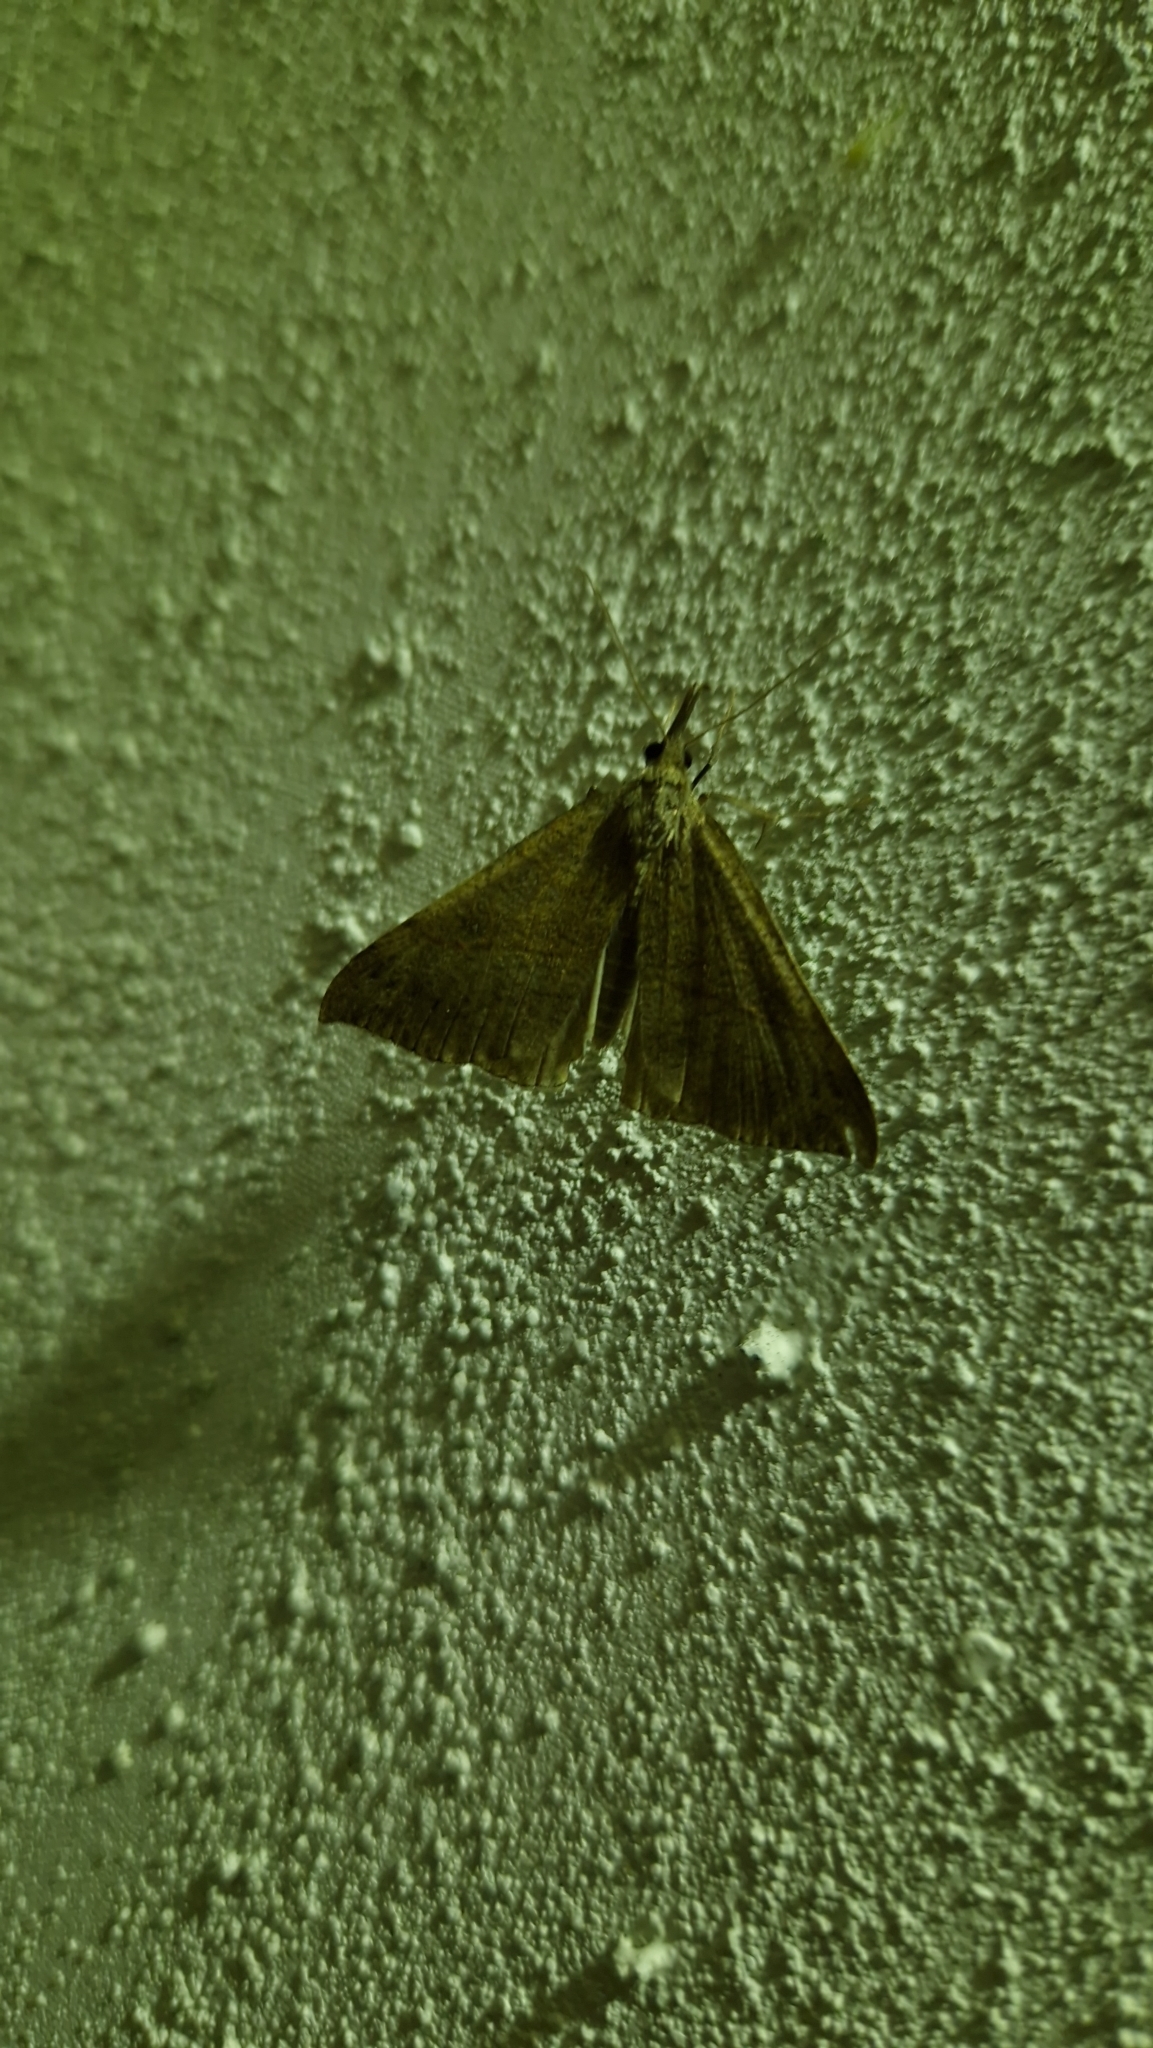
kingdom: Animalia
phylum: Arthropoda
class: Insecta
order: Lepidoptera
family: Erebidae
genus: Hypena
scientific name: Hypena proboscidalis
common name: Snout
